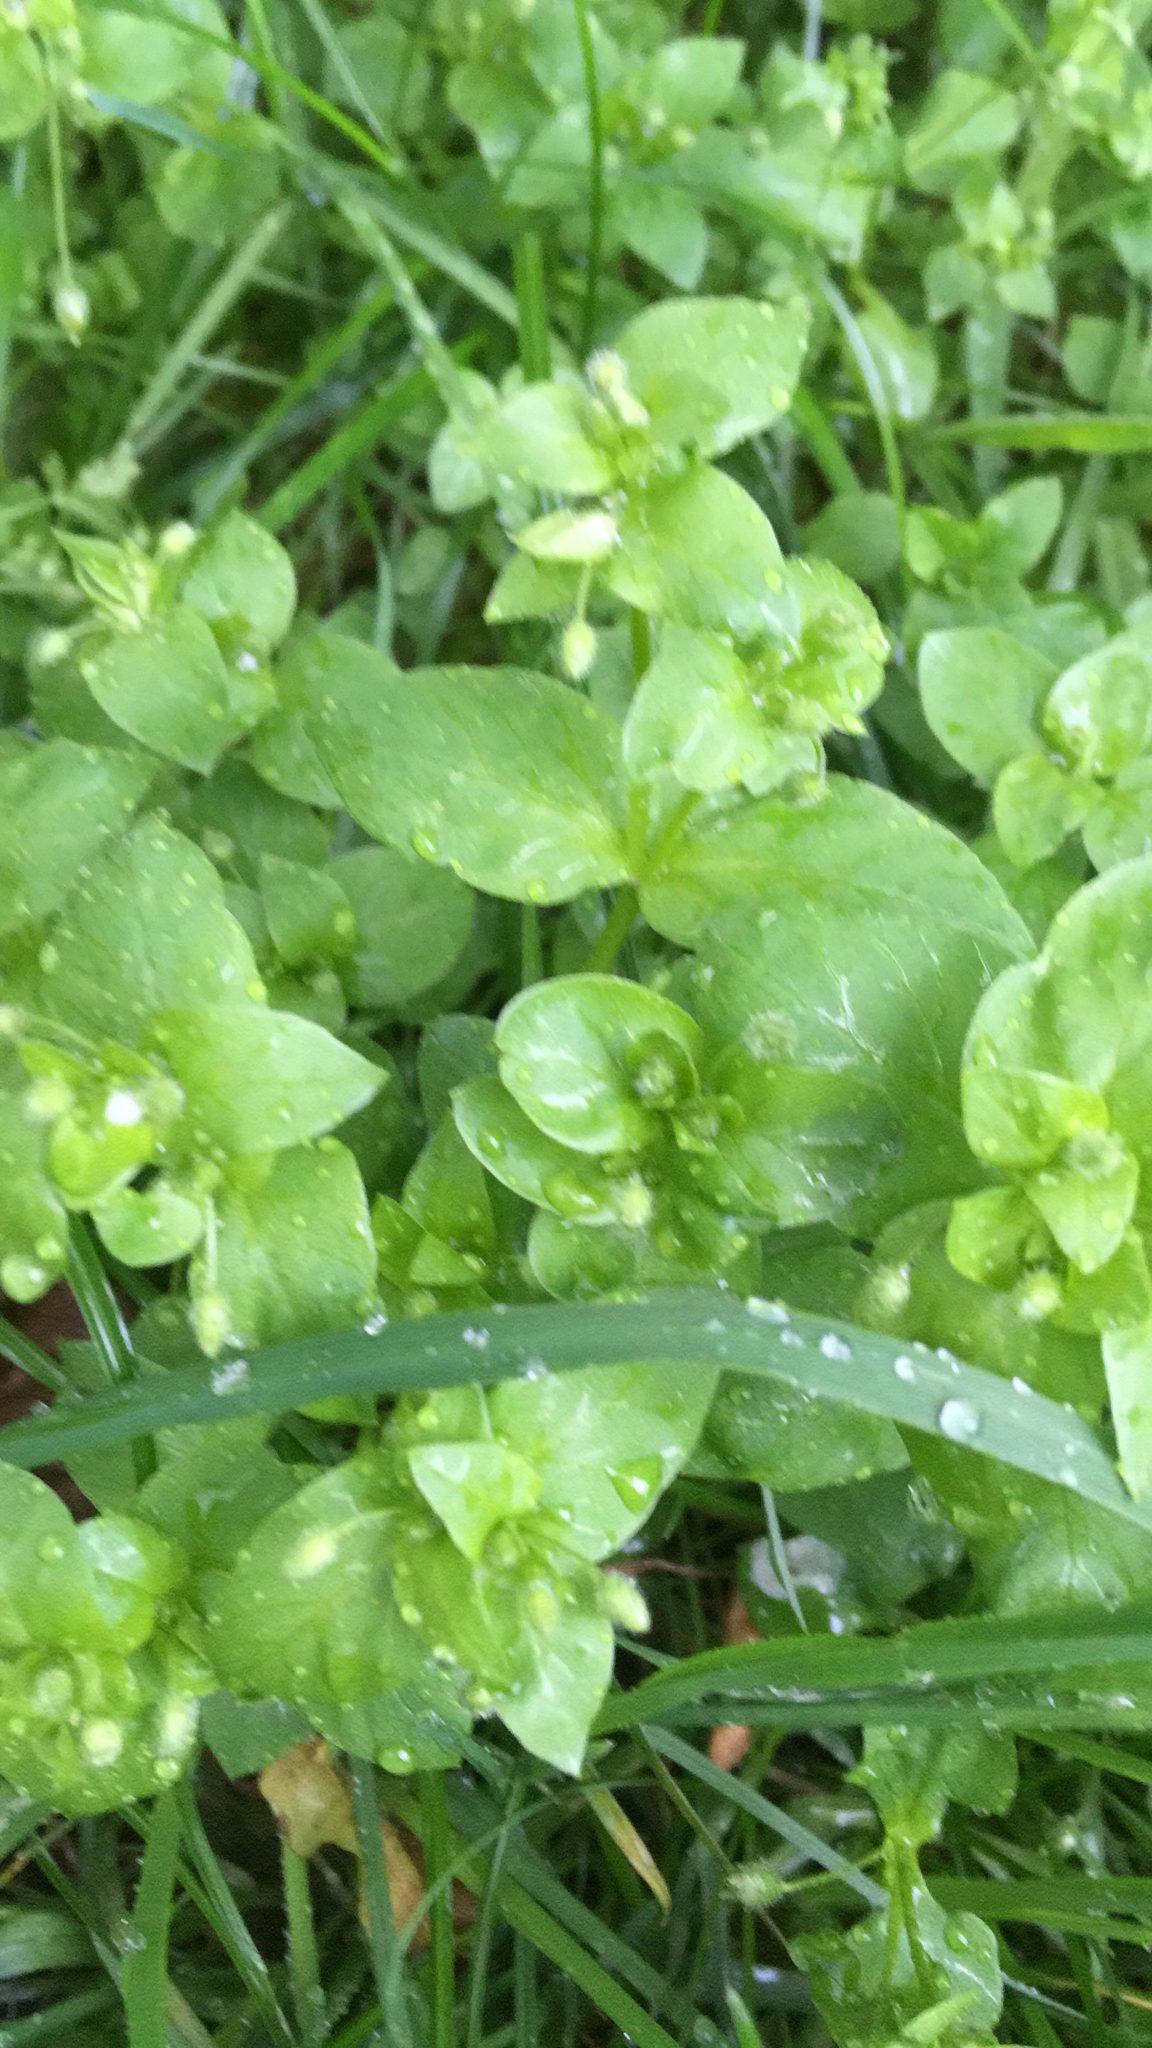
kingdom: Plantae
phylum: Tracheophyta
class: Magnoliopsida
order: Caryophyllales
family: Caryophyllaceae
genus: Stellaria
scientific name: Stellaria media
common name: Common chickweed
